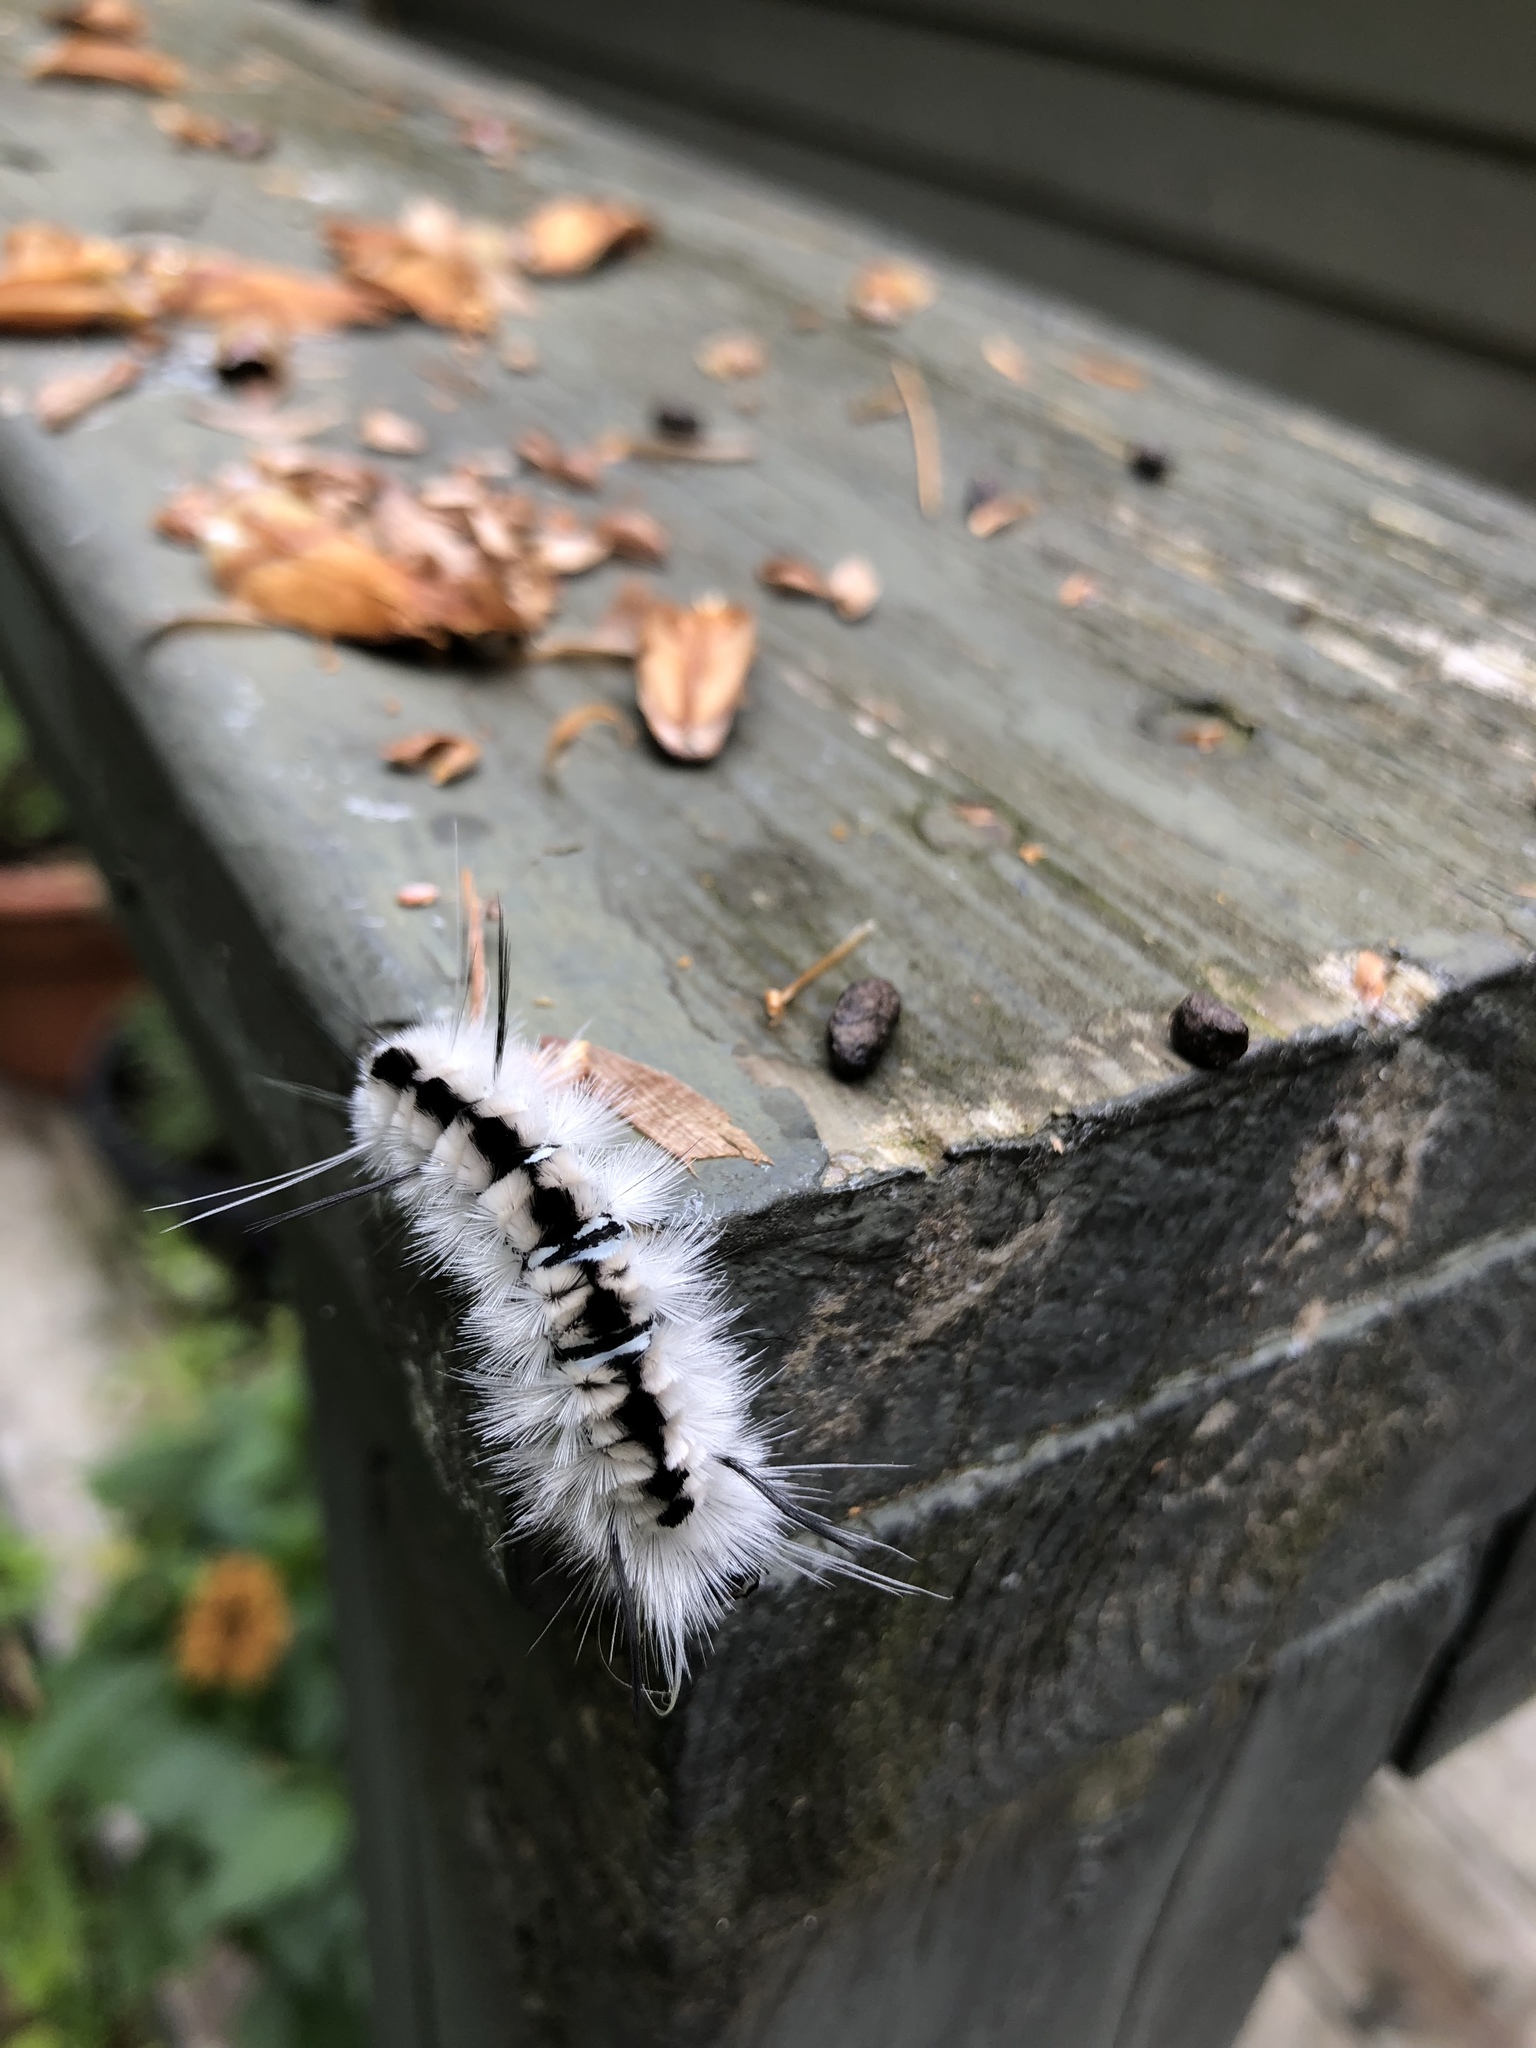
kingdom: Animalia
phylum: Arthropoda
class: Insecta
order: Lepidoptera
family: Erebidae
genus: Lophocampa
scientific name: Lophocampa caryae
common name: Hickory tussock moth
